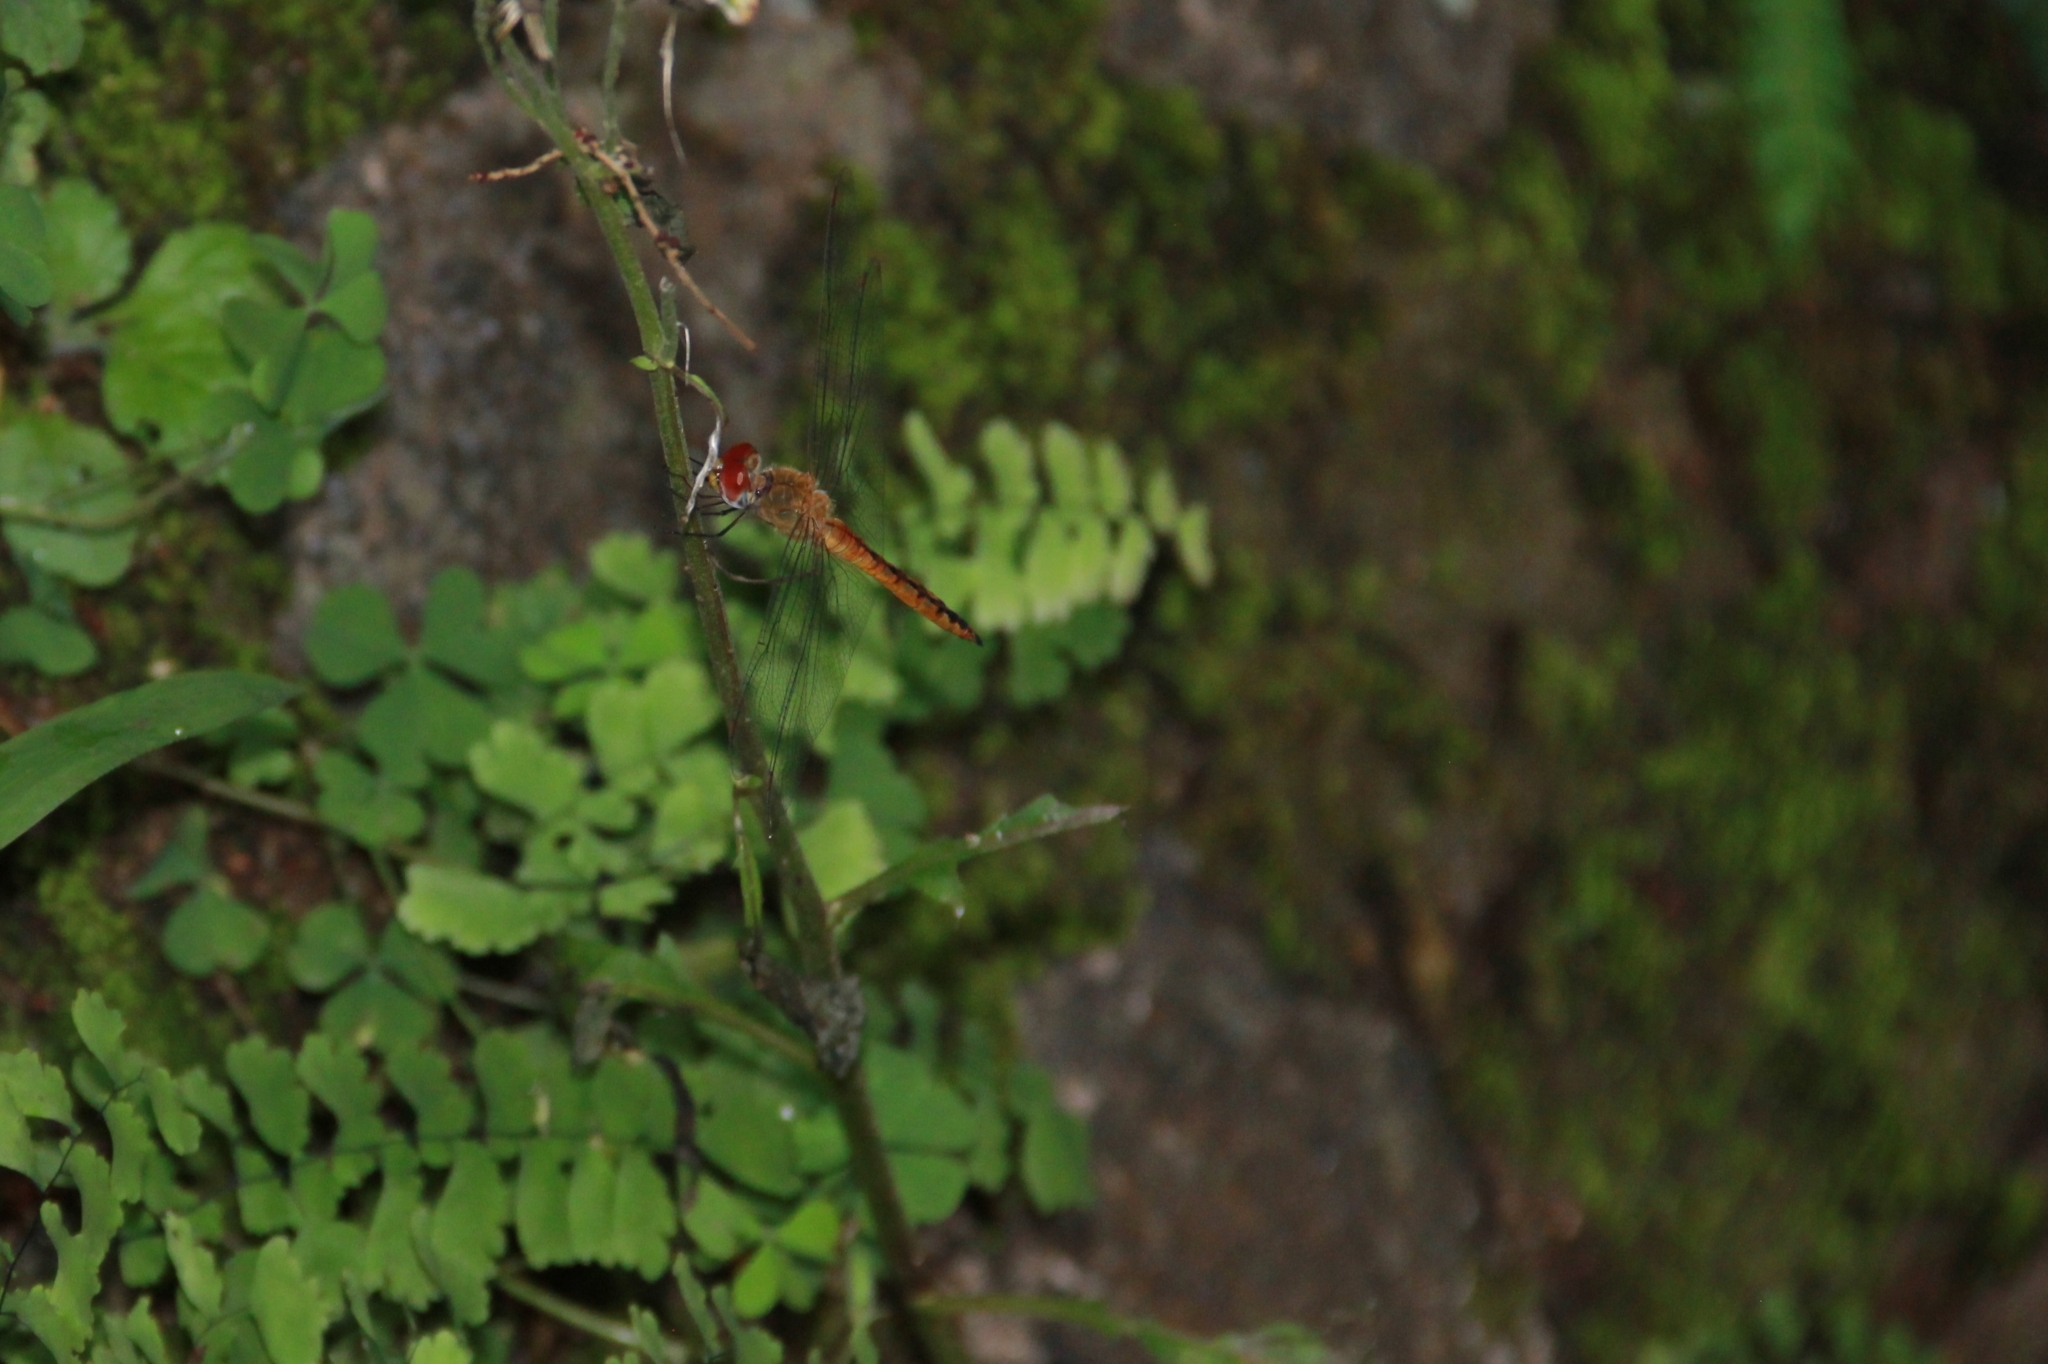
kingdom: Animalia
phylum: Arthropoda
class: Insecta
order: Odonata
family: Libellulidae
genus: Pantala
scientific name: Pantala flavescens
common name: Wandering glider
